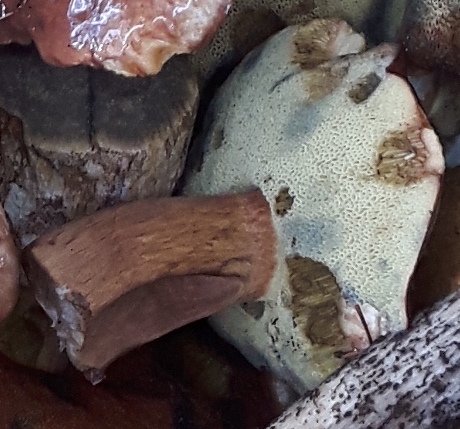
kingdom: Fungi
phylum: Basidiomycota
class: Agaricomycetes
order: Boletales
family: Boletaceae
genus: Imleria
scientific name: Imleria badia
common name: Bay bolete
